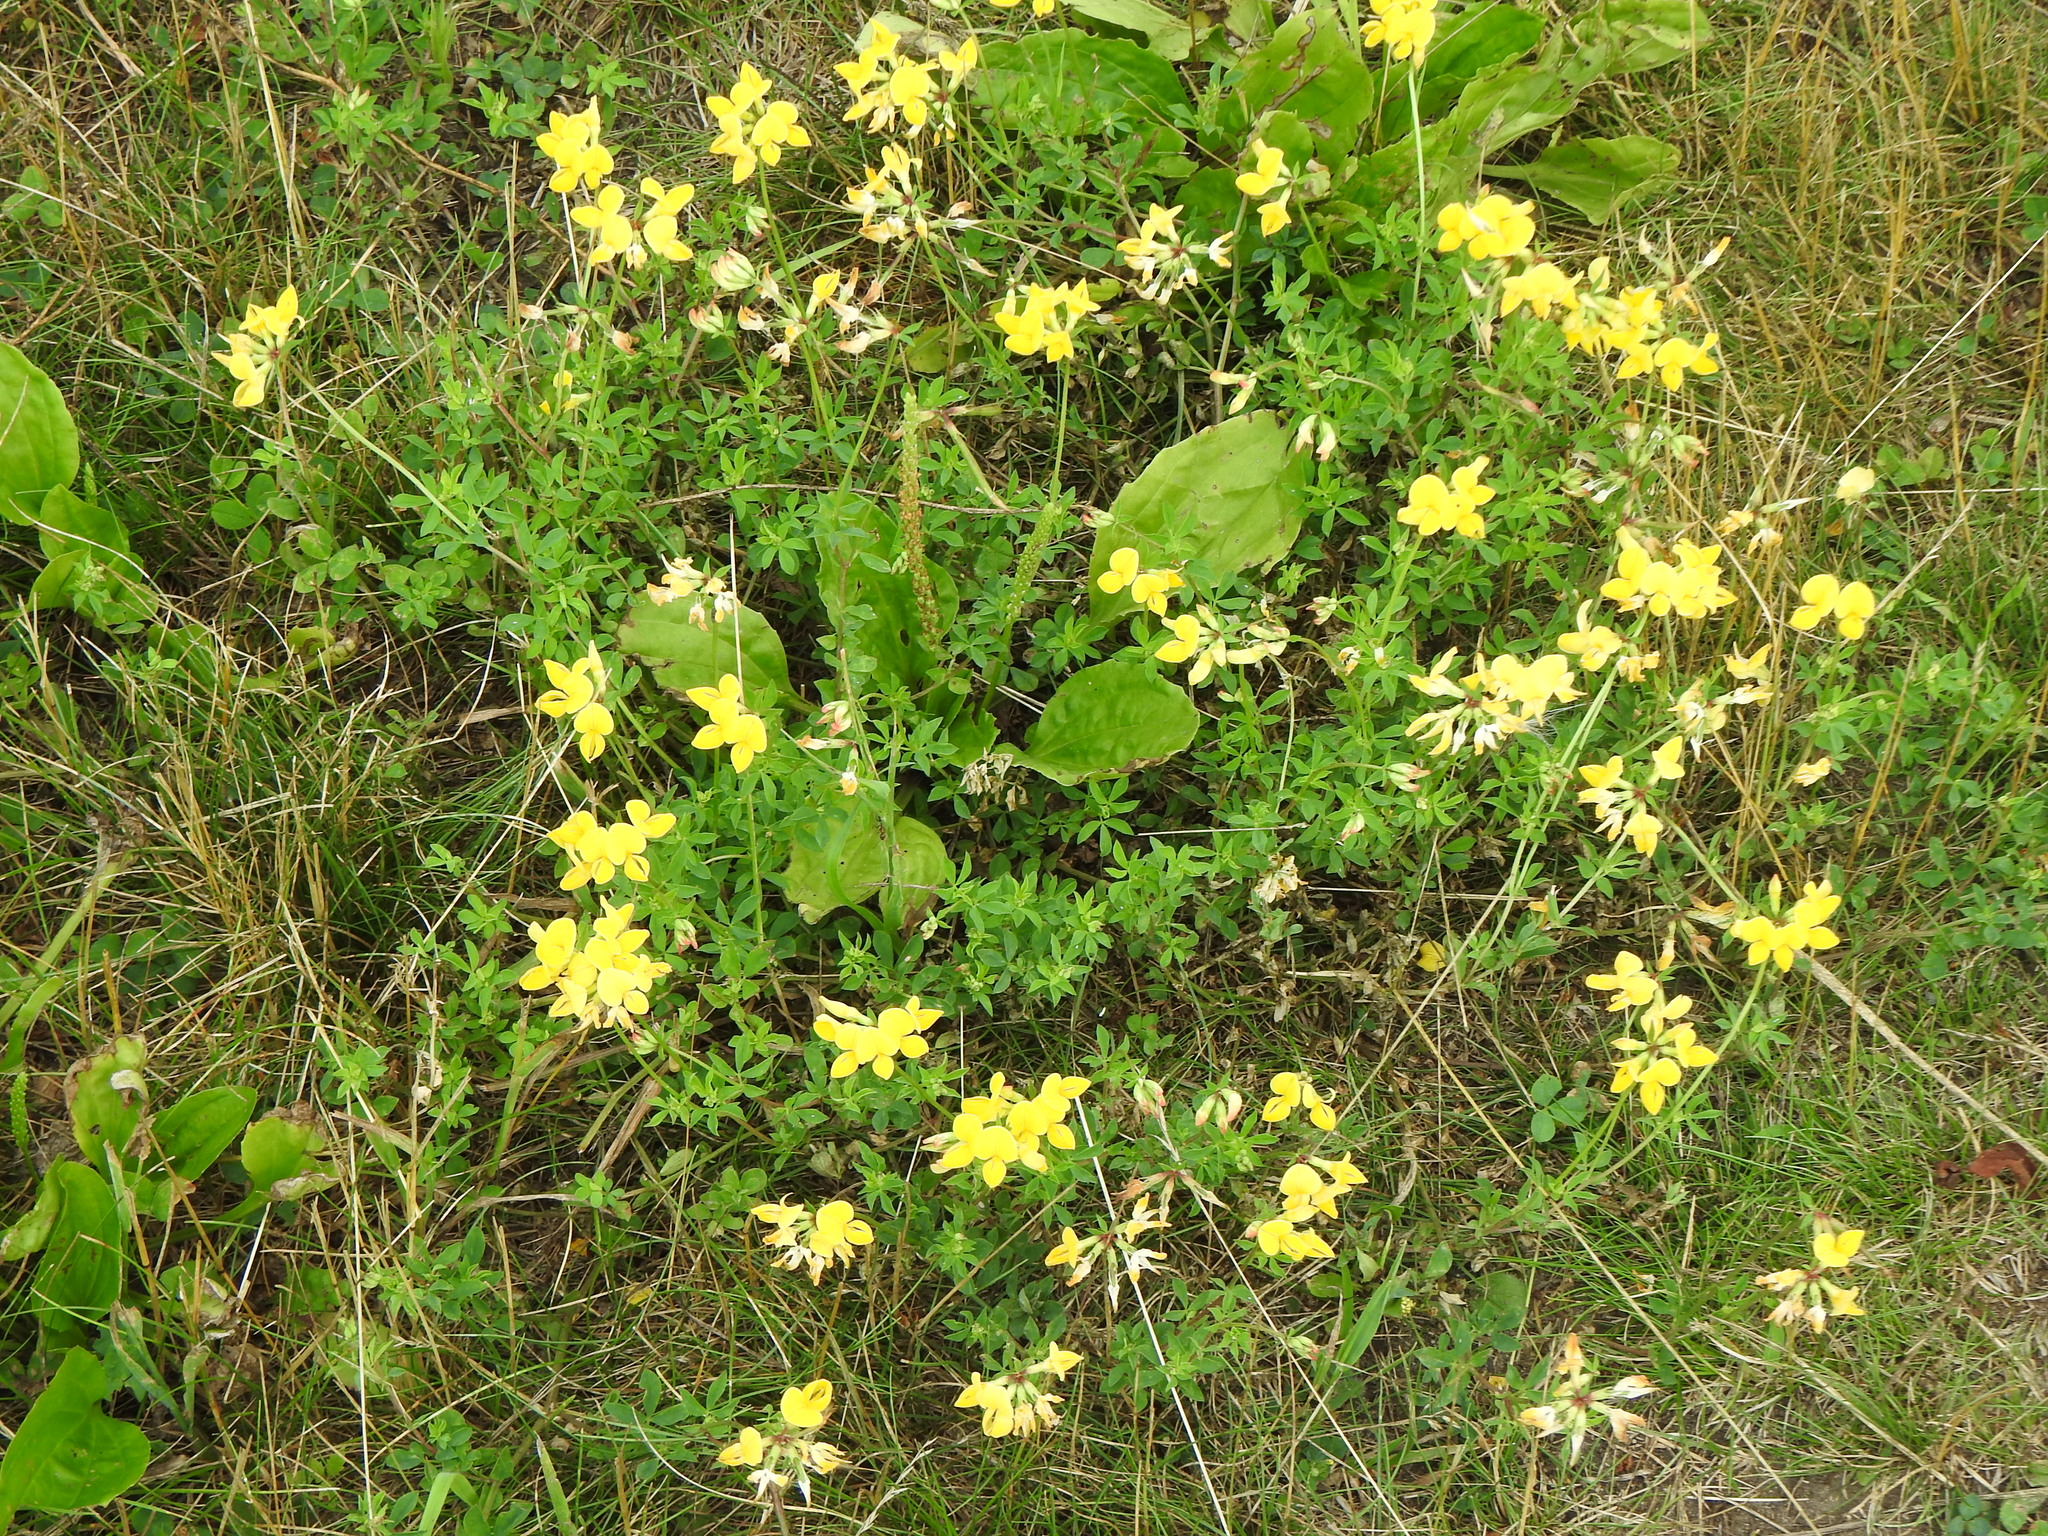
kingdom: Plantae
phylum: Tracheophyta
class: Magnoliopsida
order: Fabales
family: Fabaceae
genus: Lotus
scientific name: Lotus corniculatus
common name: Common bird's-foot-trefoil
